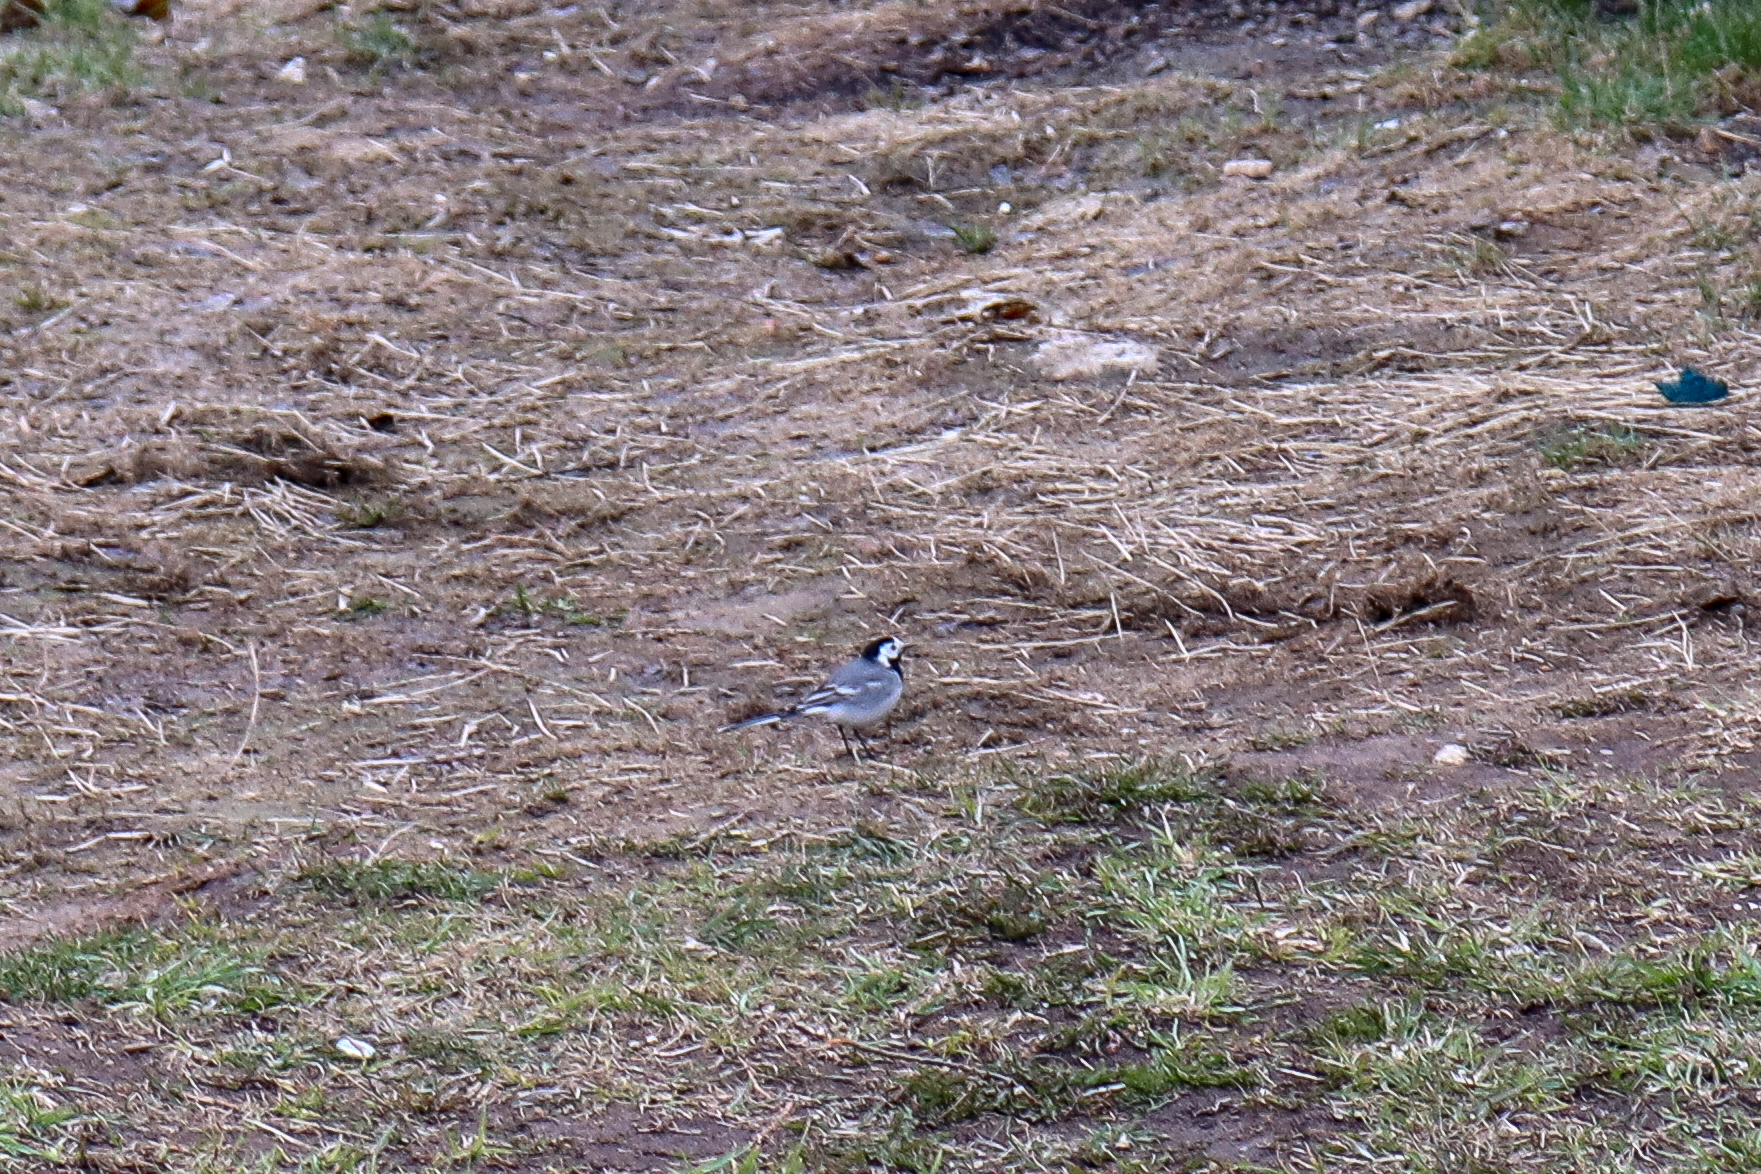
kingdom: Animalia
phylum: Chordata
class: Aves
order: Passeriformes
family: Motacillidae
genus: Motacilla
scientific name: Motacilla alba
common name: White wagtail
